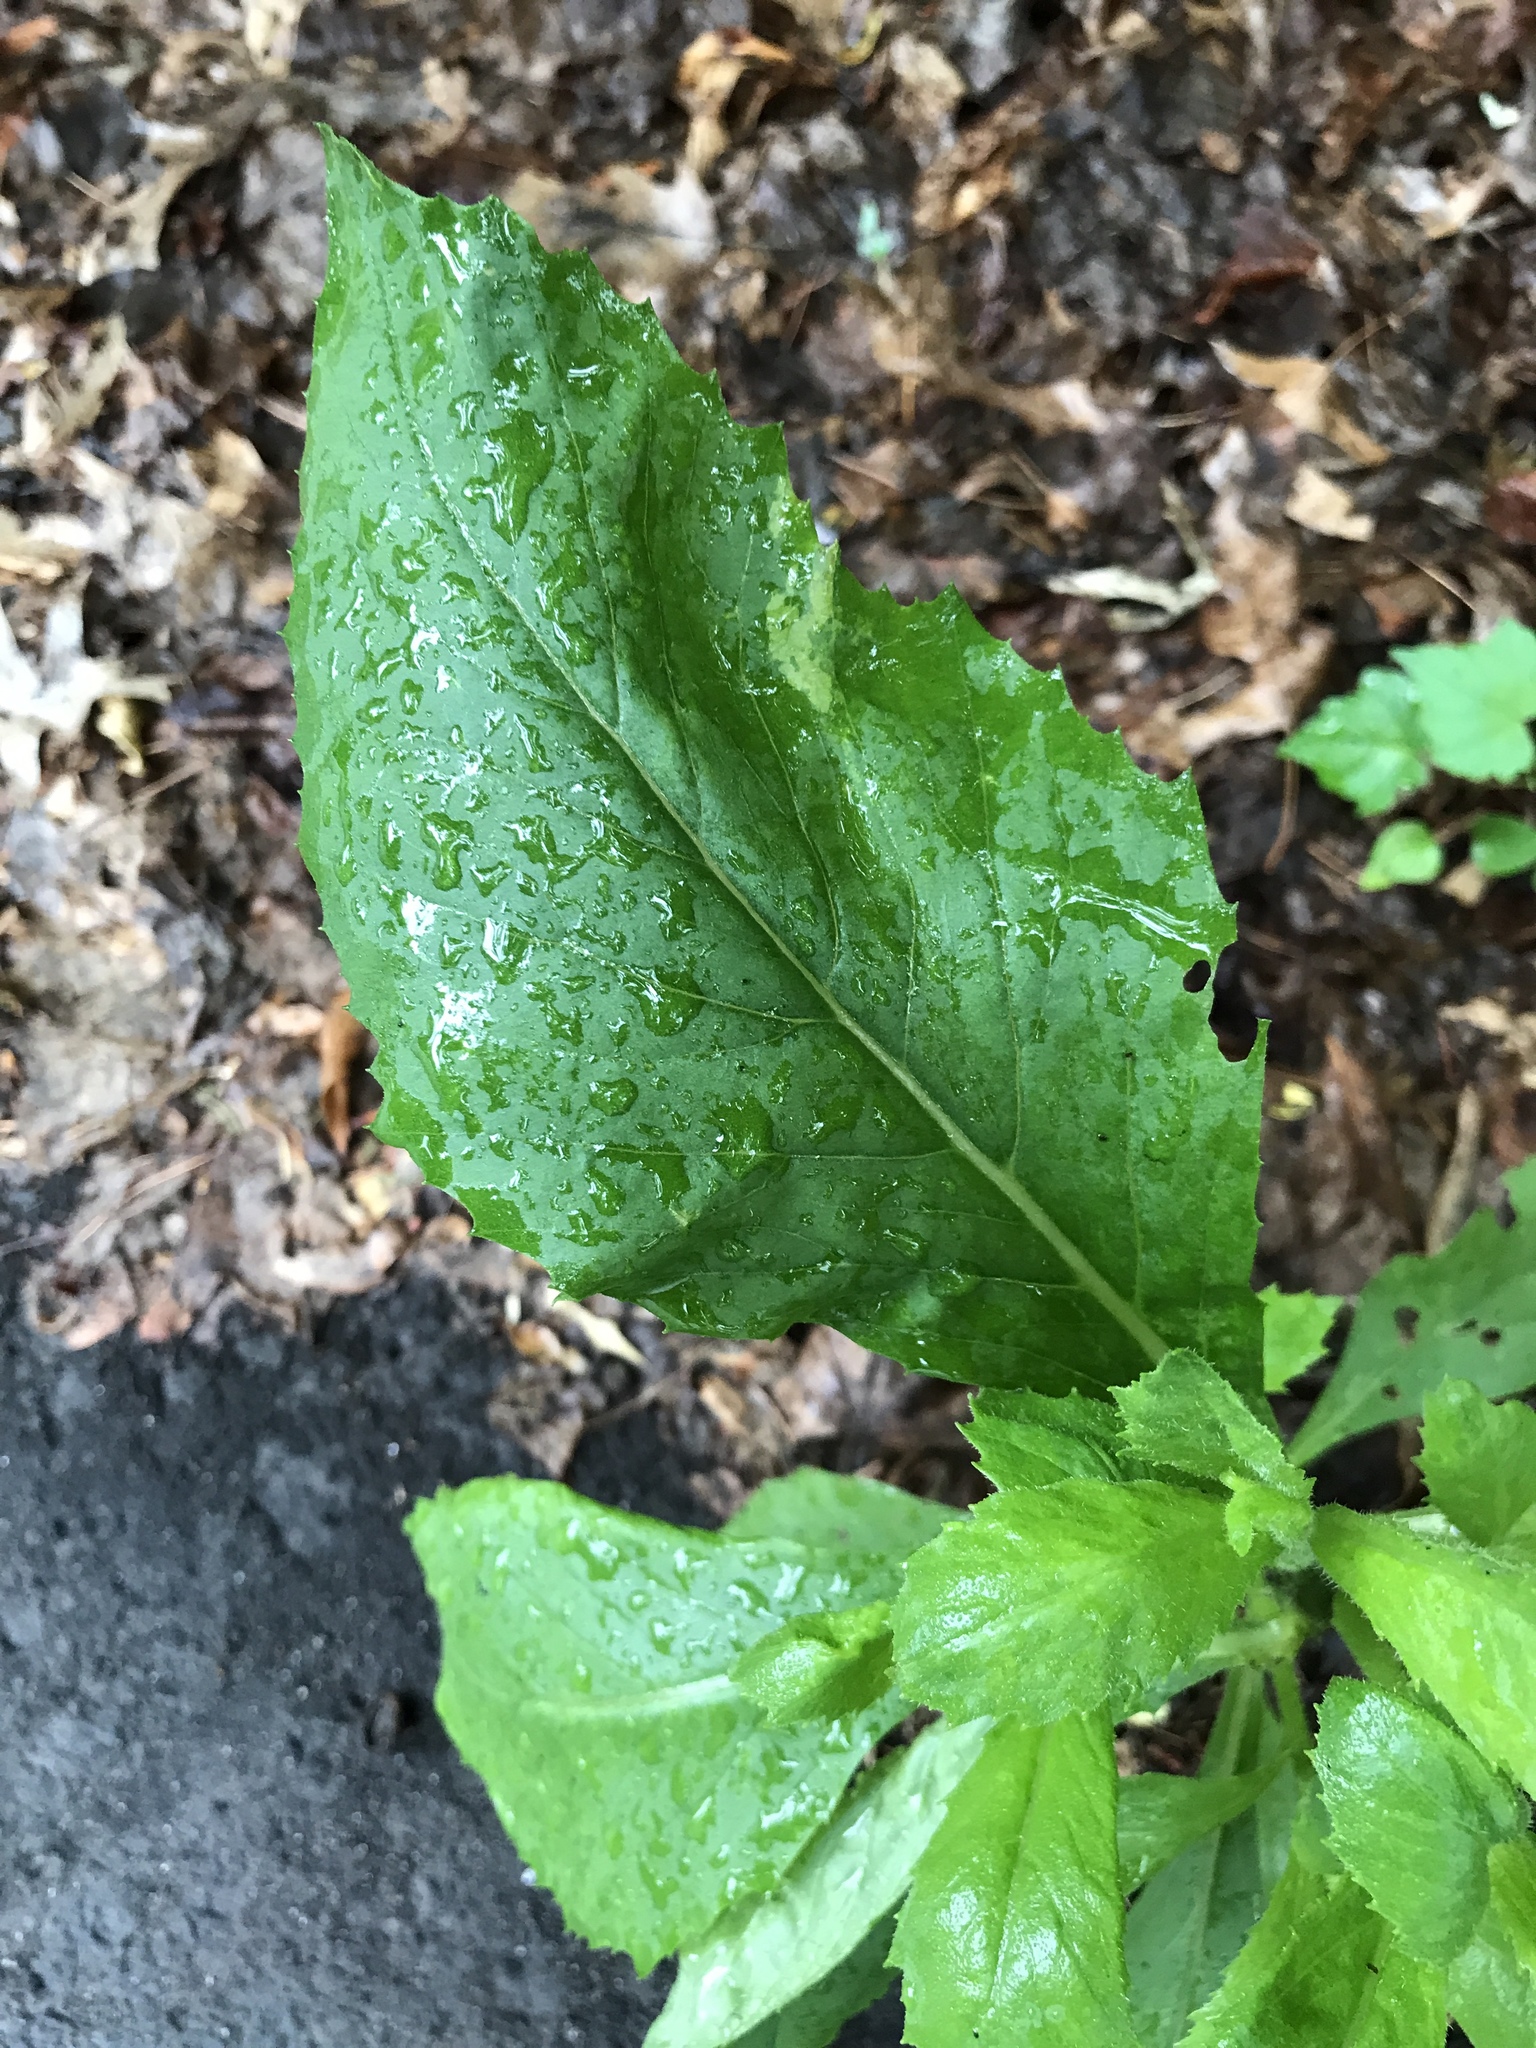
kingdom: Plantae
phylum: Tracheophyta
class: Magnoliopsida
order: Asterales
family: Asteraceae
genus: Erechtites
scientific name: Erechtites hieraciifolius
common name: American burnweed
